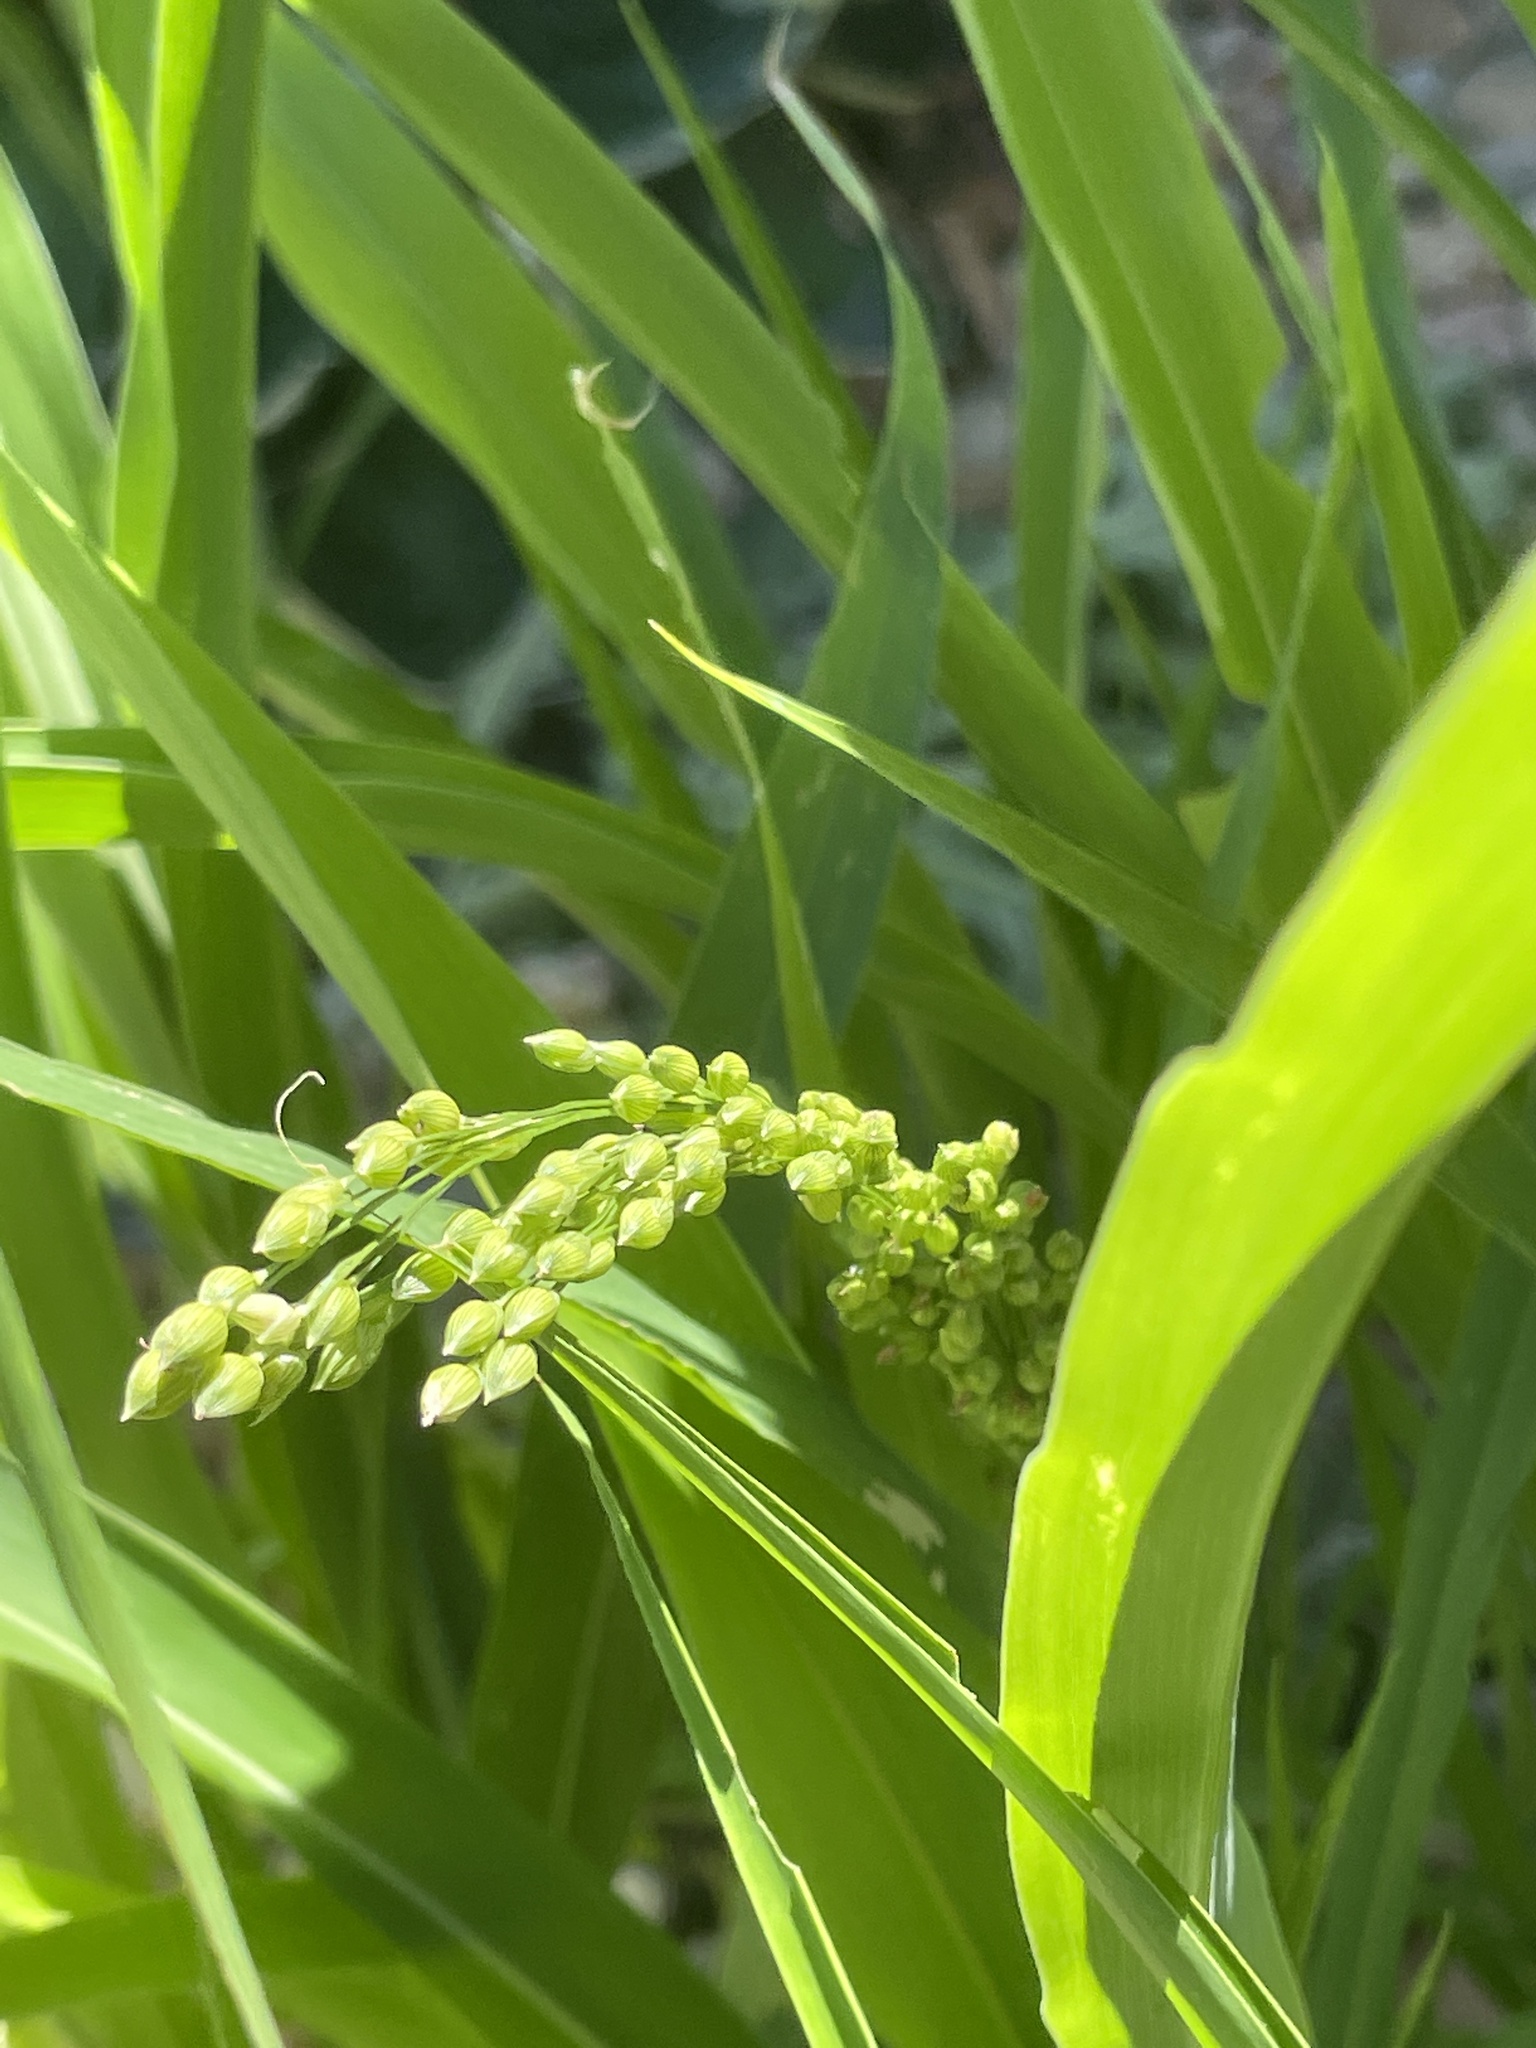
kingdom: Plantae
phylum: Tracheophyta
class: Liliopsida
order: Poales
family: Poaceae
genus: Panicum
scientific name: Panicum miliaceum
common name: Common millet
